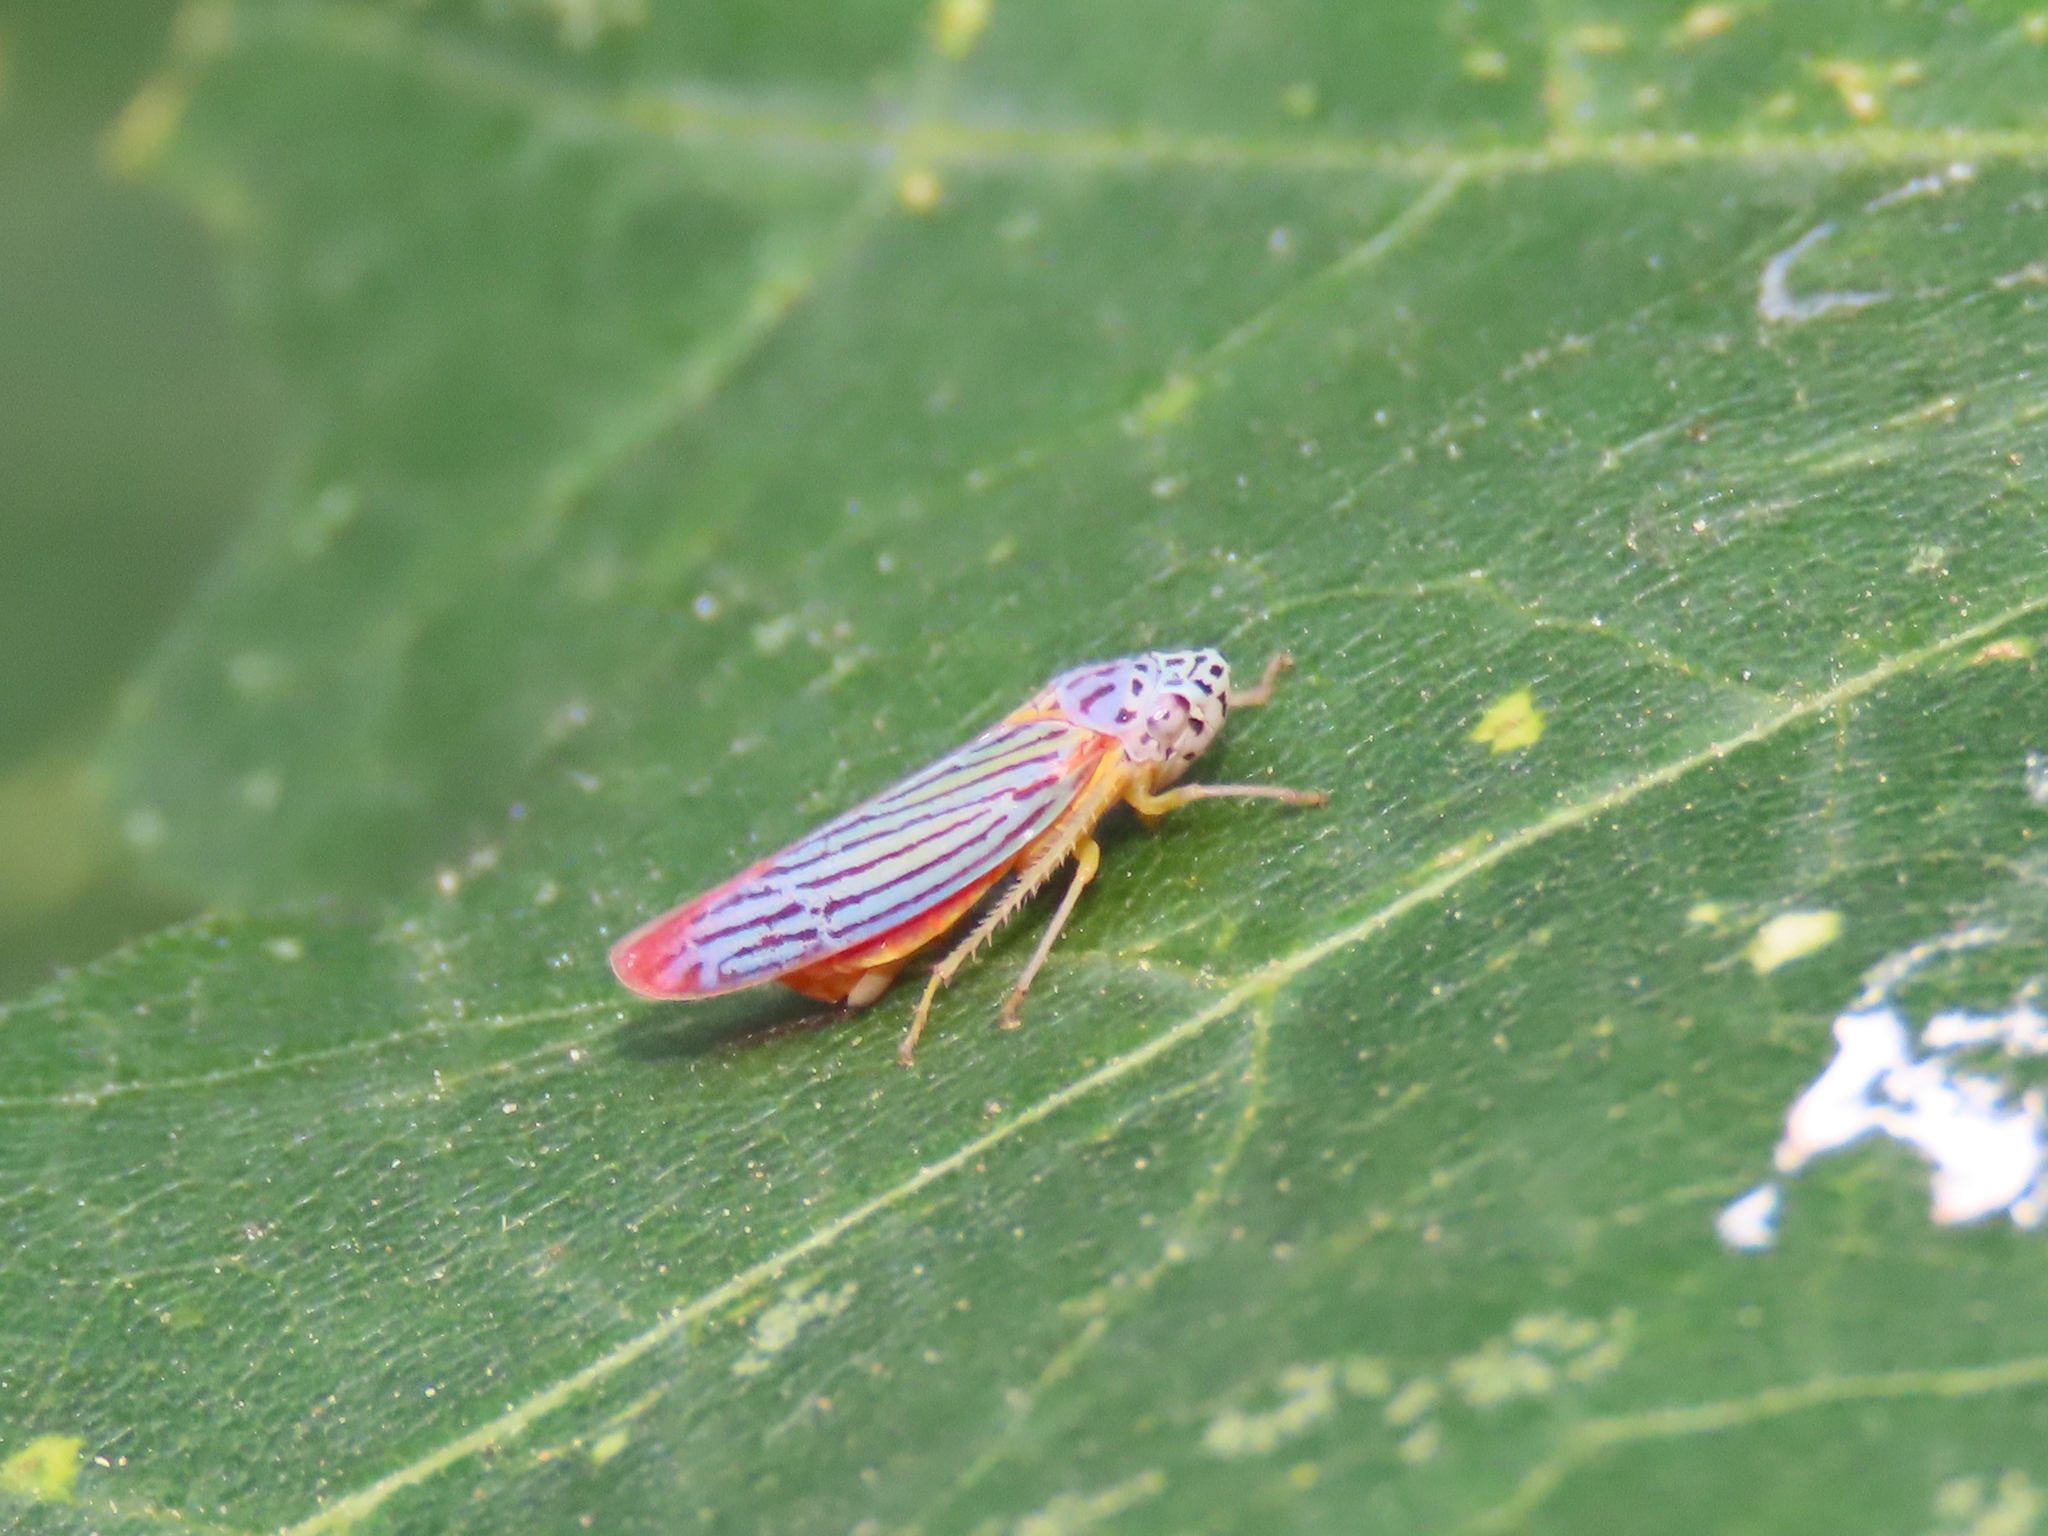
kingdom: Animalia
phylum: Arthropoda
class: Insecta
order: Hemiptera
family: Cicadellidae
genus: Graphocephala
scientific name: Graphocephala aurora
